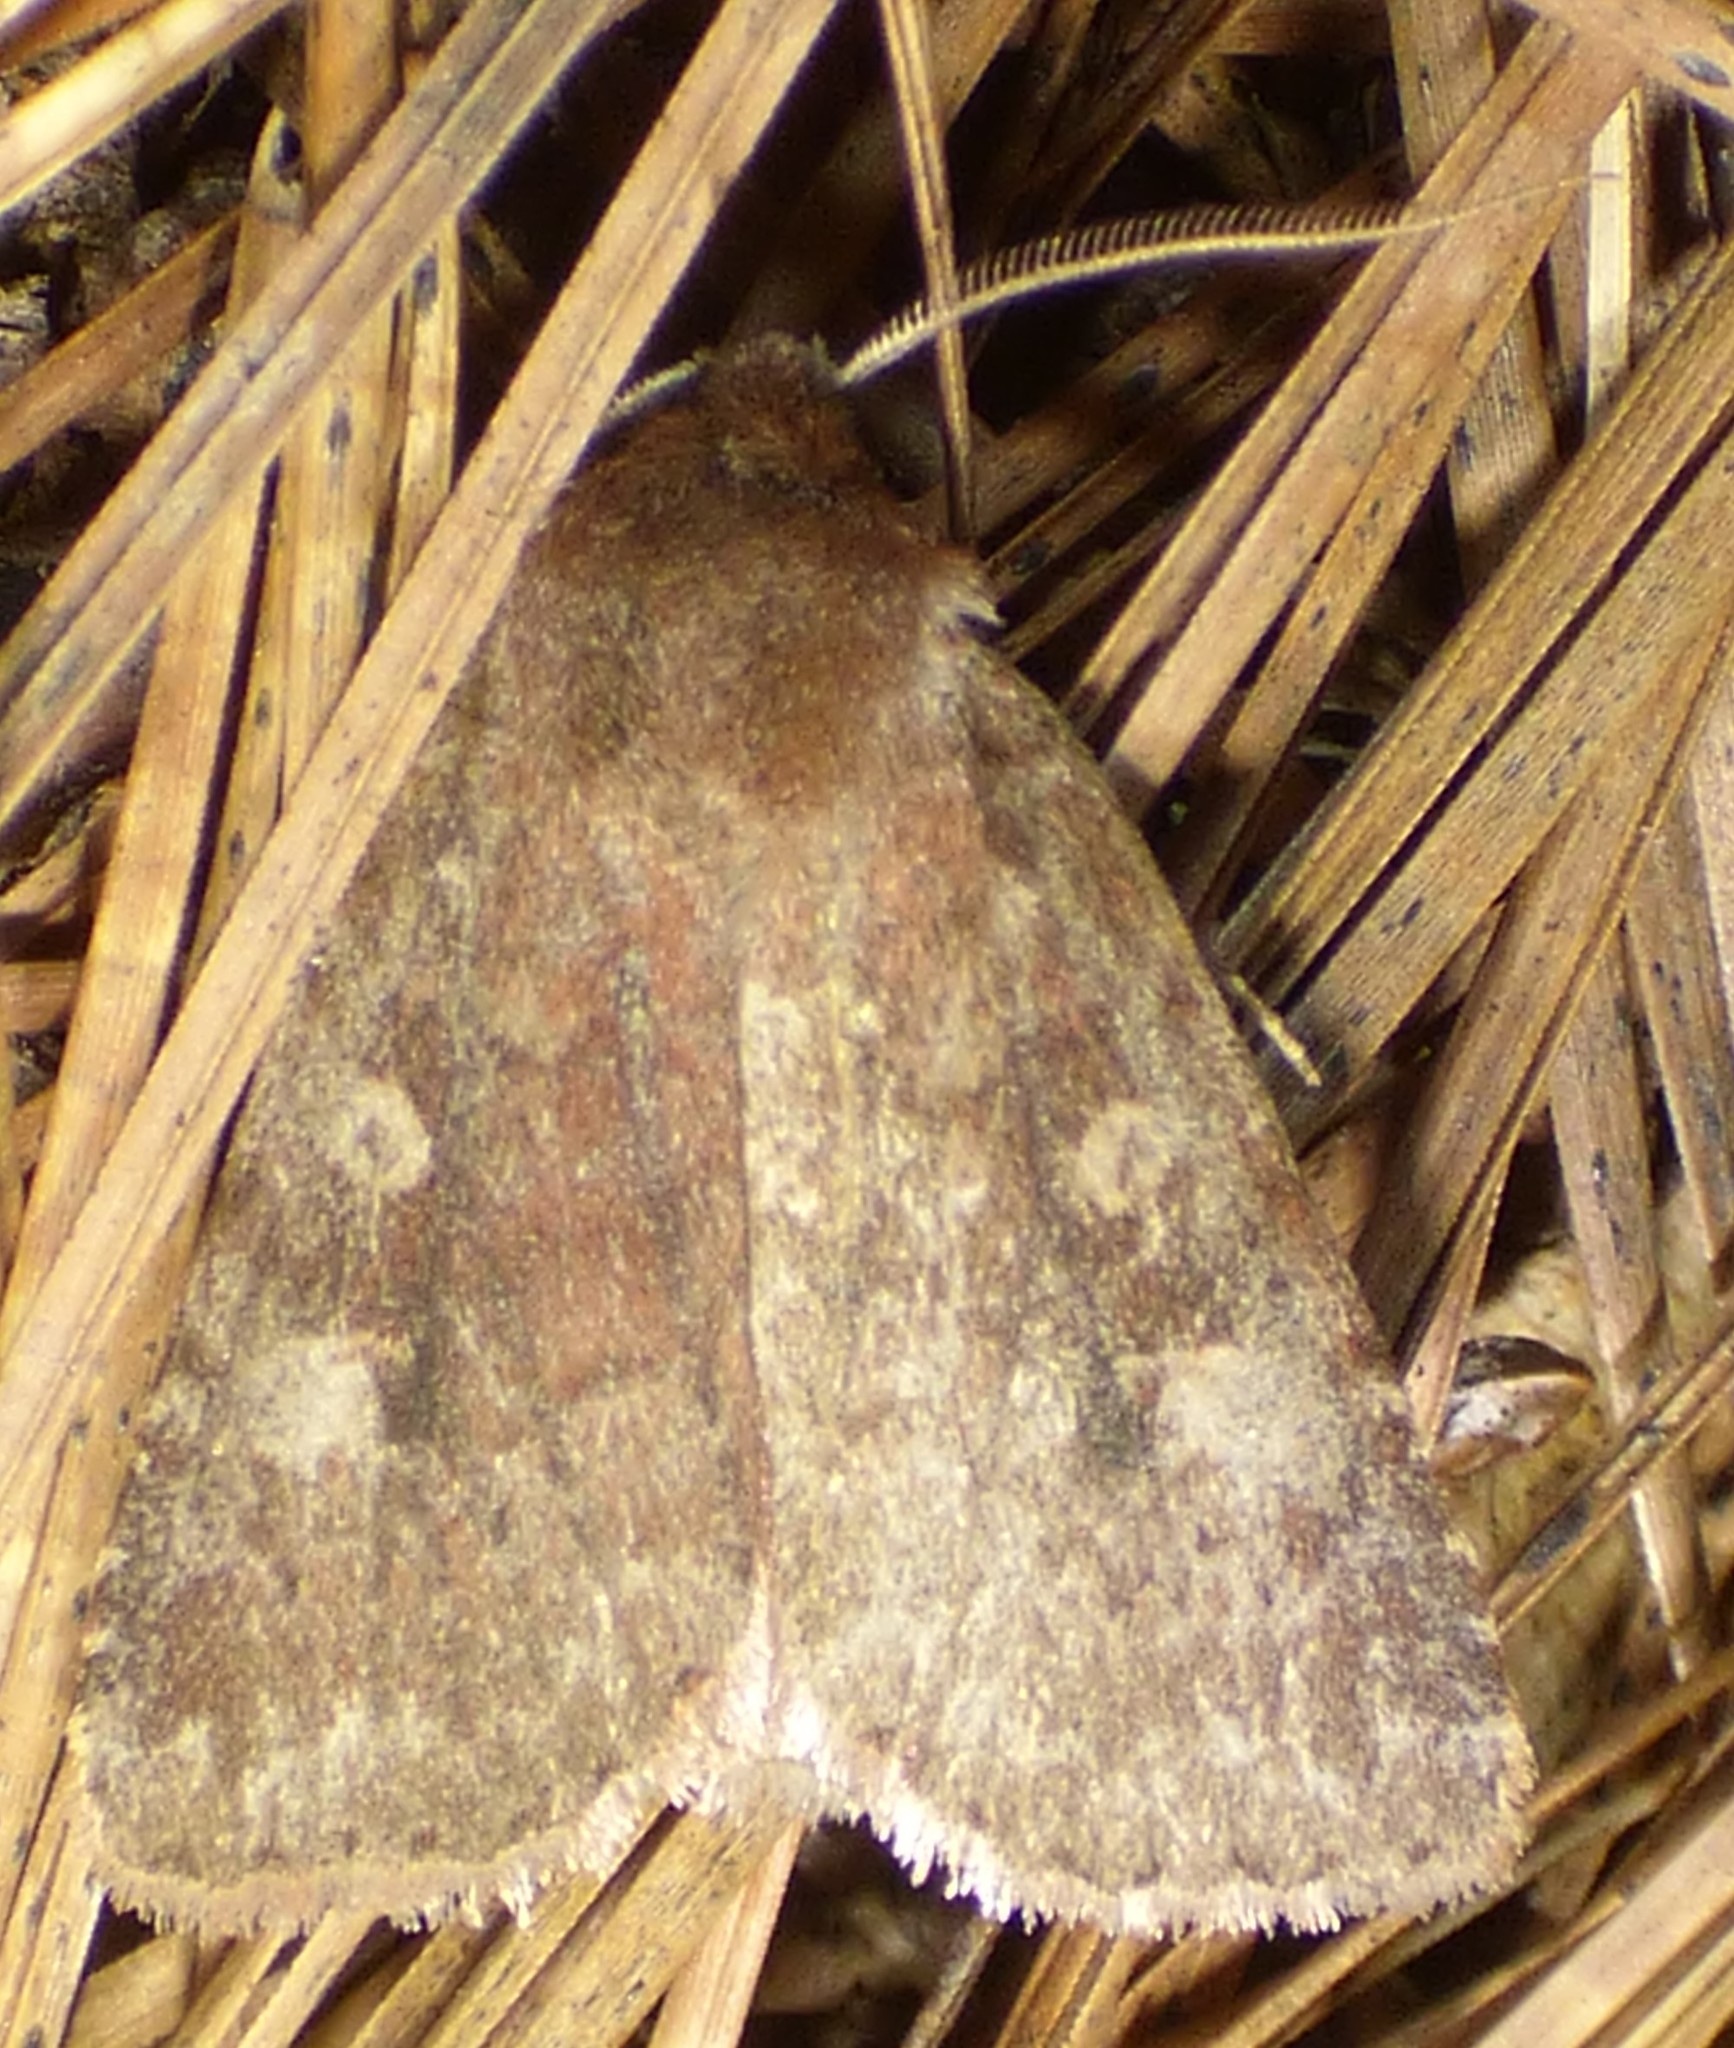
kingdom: Animalia
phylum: Arthropoda
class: Insecta
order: Lepidoptera
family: Noctuidae
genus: Cerastis
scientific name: Cerastis tenebrifera
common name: Reddish speckled dart
